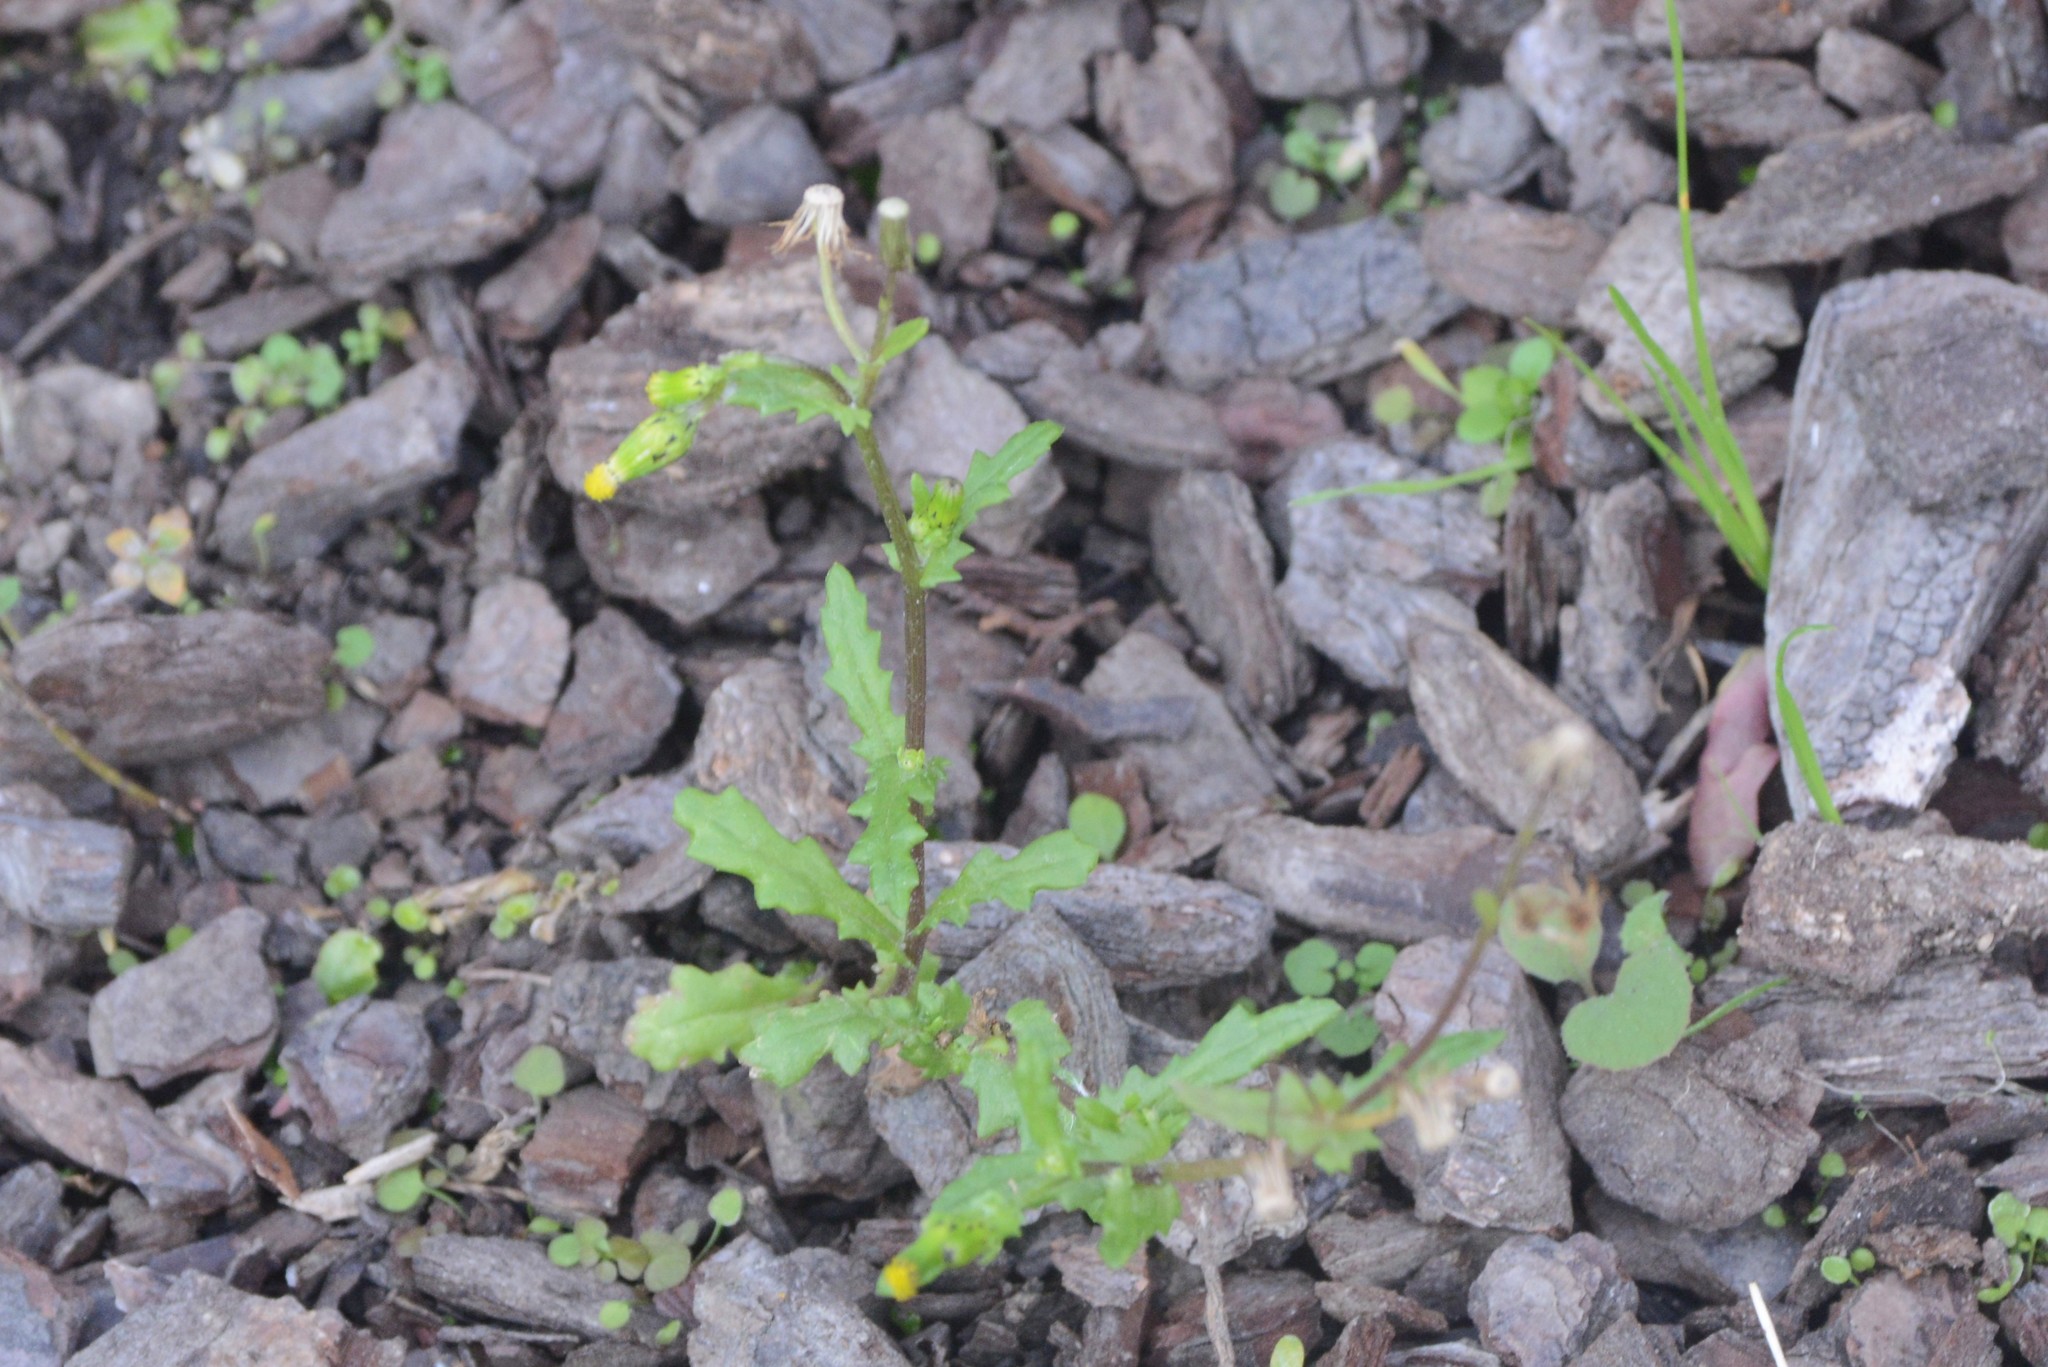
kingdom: Plantae
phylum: Tracheophyta
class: Magnoliopsida
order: Asterales
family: Asteraceae
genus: Senecio
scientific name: Senecio vulgaris
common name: Old-man-in-the-spring
